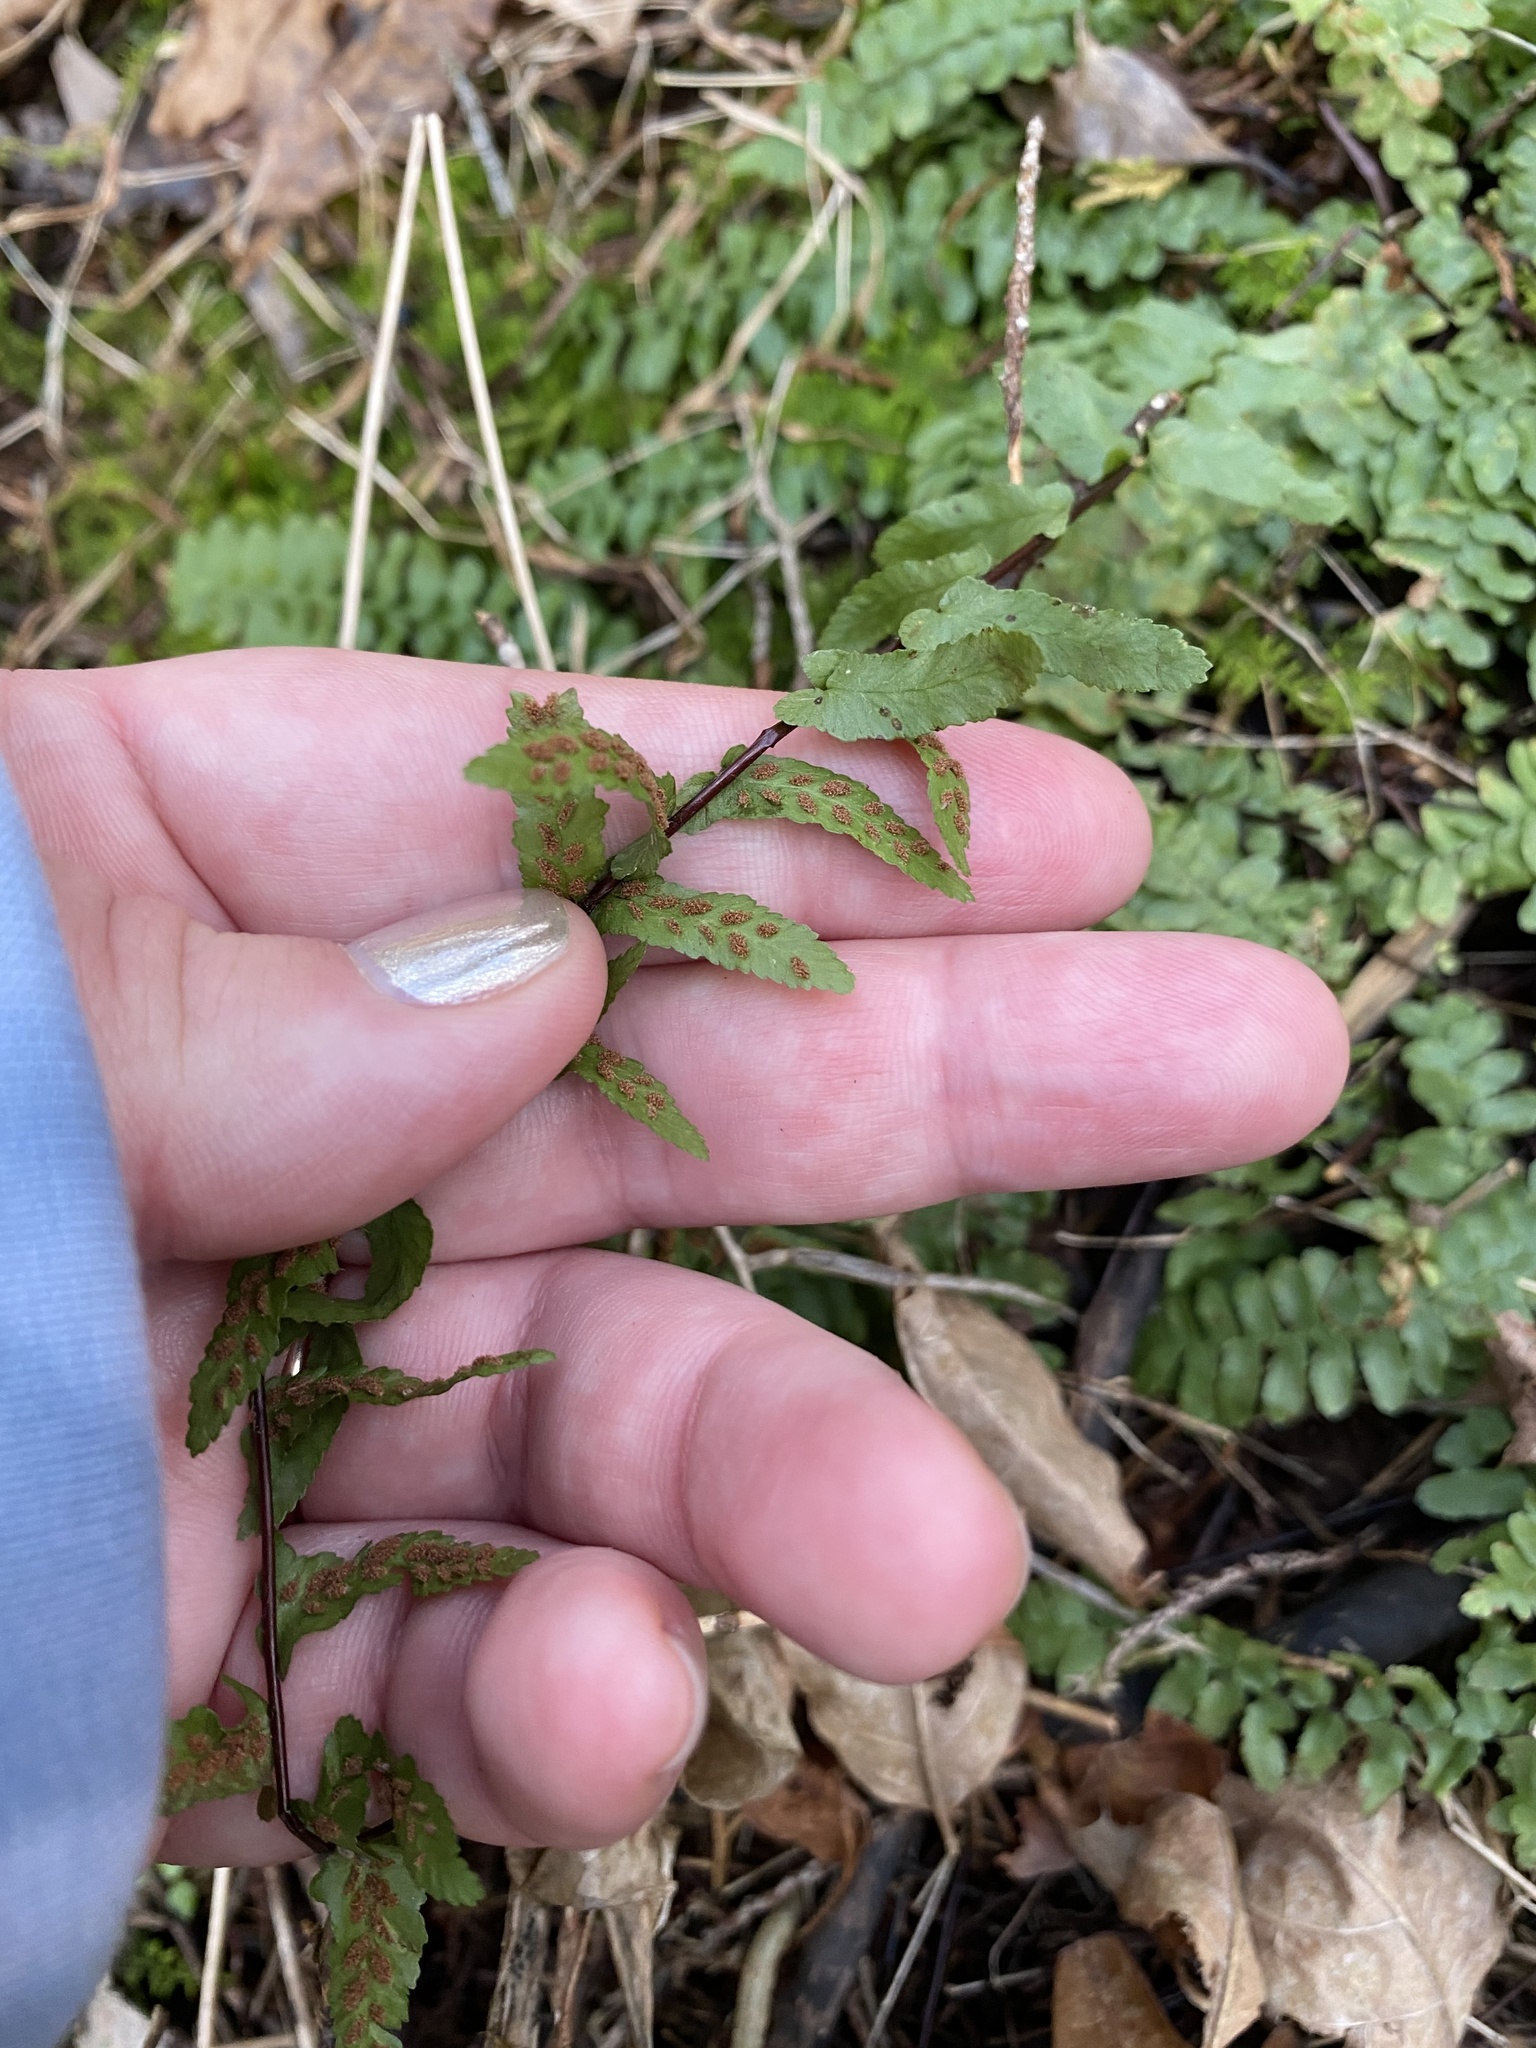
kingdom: Plantae
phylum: Tracheophyta
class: Polypodiopsida
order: Polypodiales
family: Aspleniaceae
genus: Asplenium
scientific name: Asplenium platyneuron
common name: Ebony spleenwort
